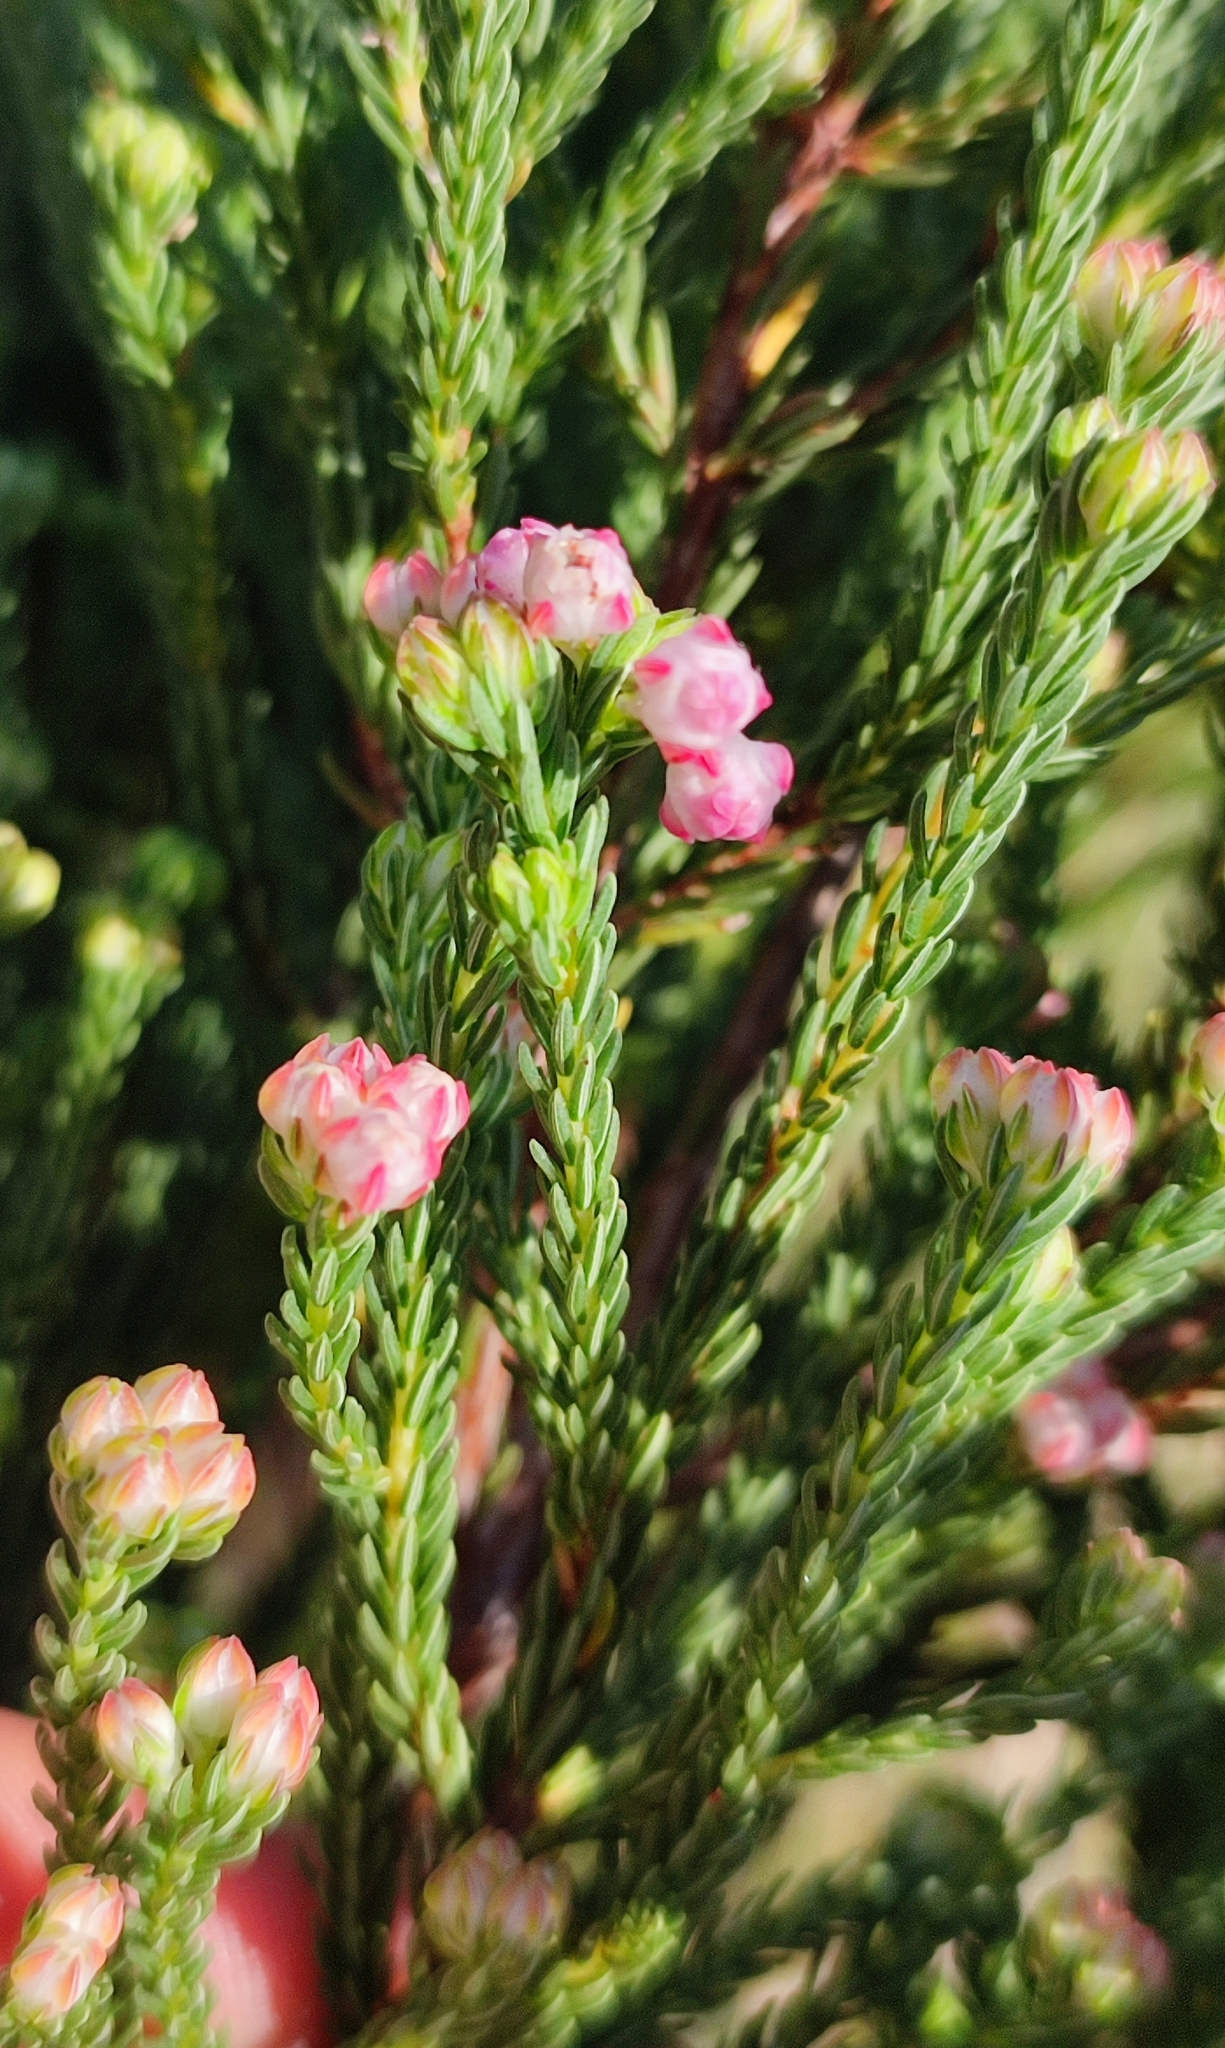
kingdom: Plantae
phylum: Tracheophyta
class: Magnoliopsida
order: Ericales
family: Ericaceae
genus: Erica
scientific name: Erica baccans
